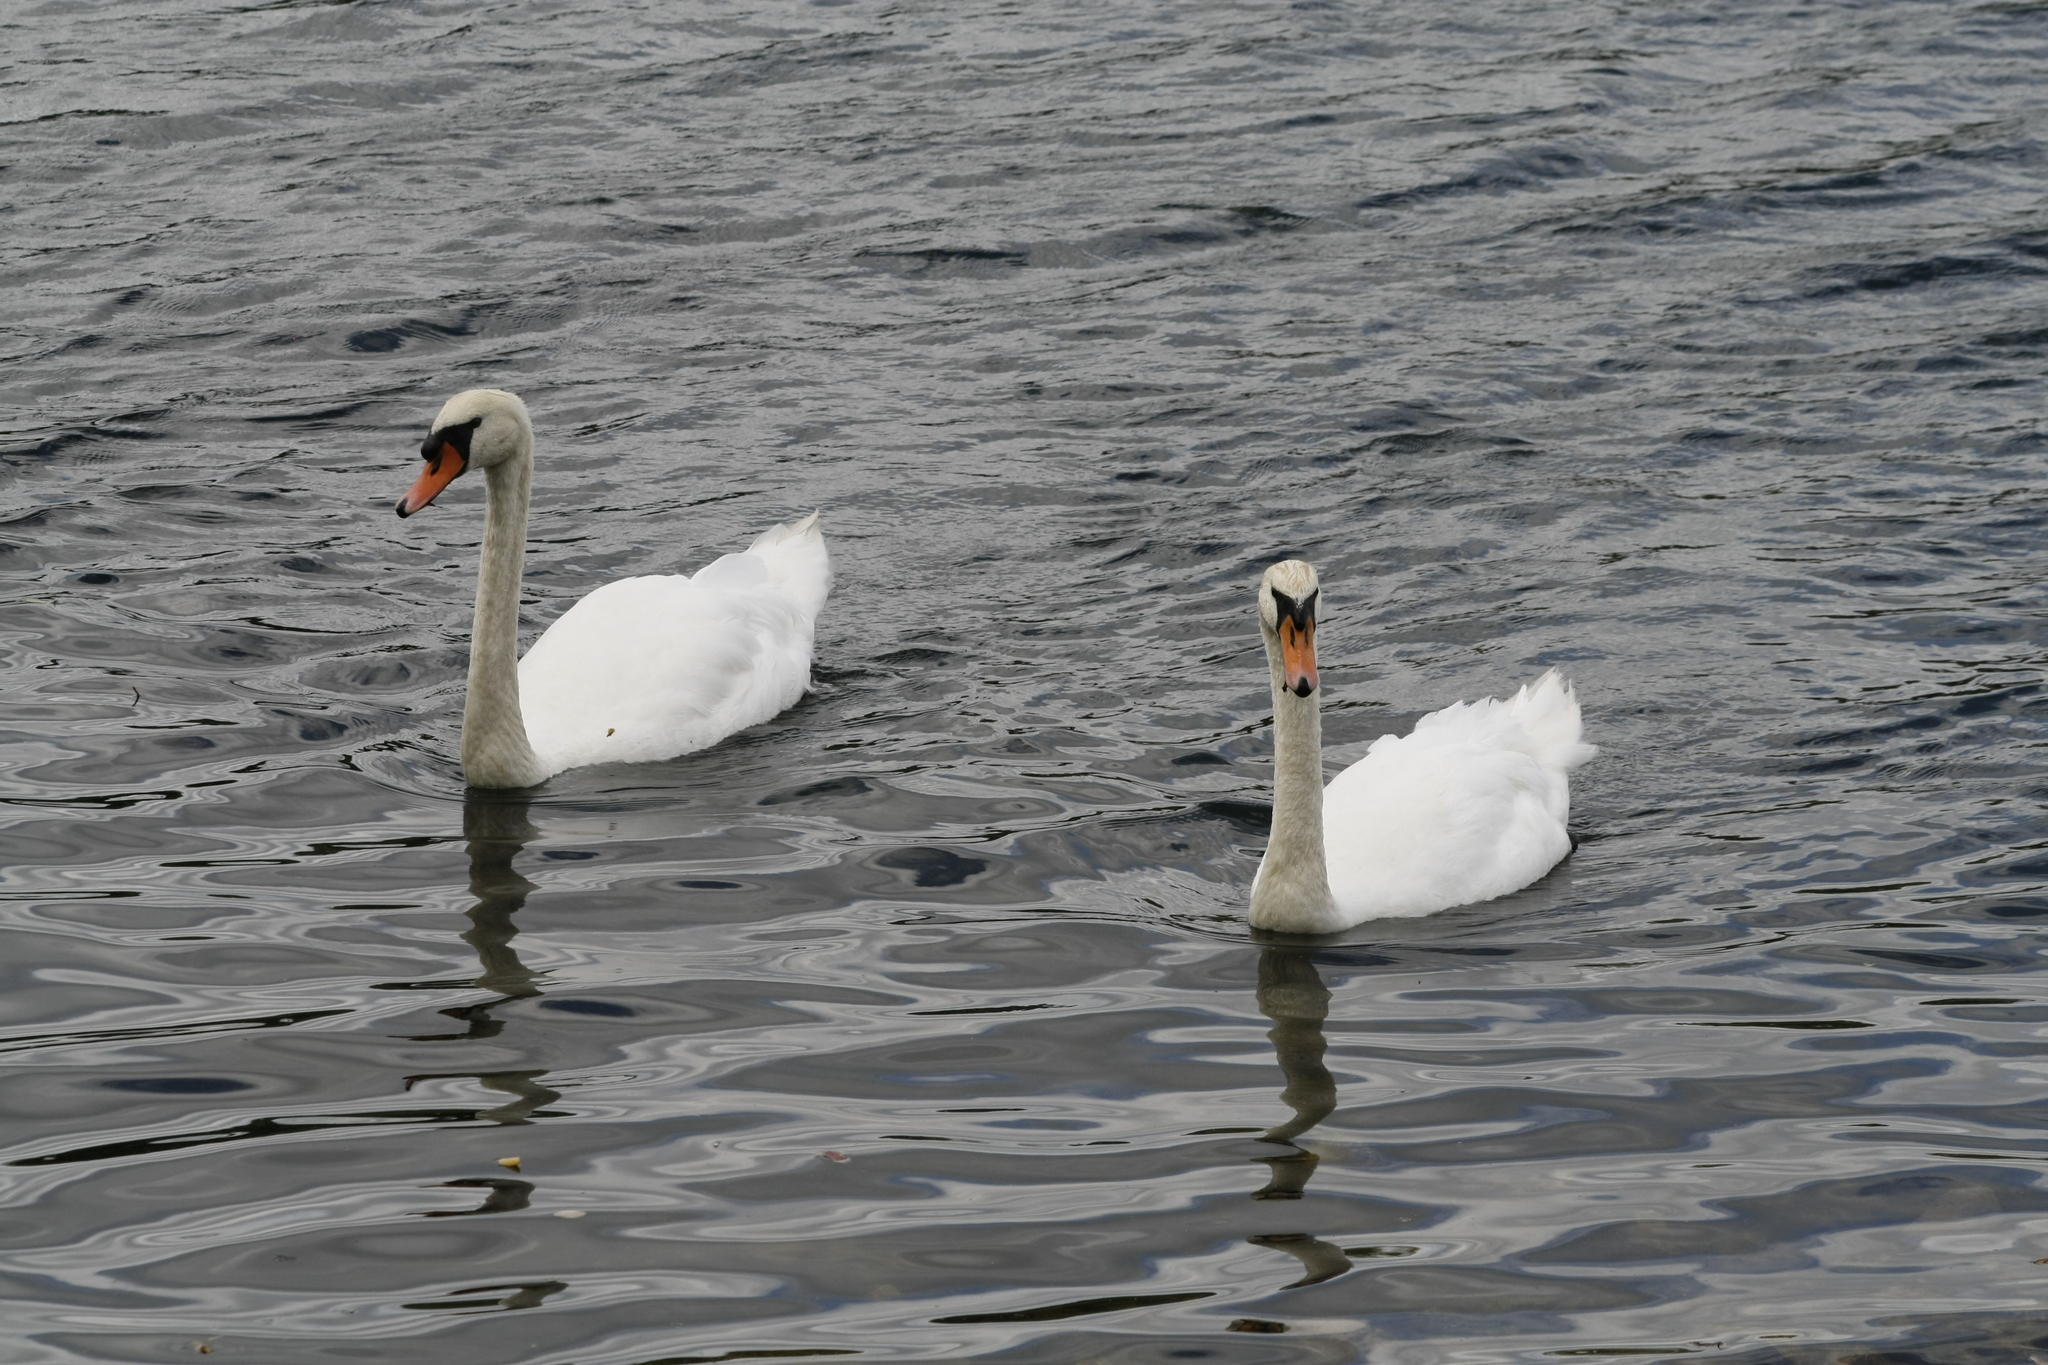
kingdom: Animalia
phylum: Chordata
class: Aves
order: Anseriformes
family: Anatidae
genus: Cygnus
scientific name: Cygnus olor
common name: Mute swan
